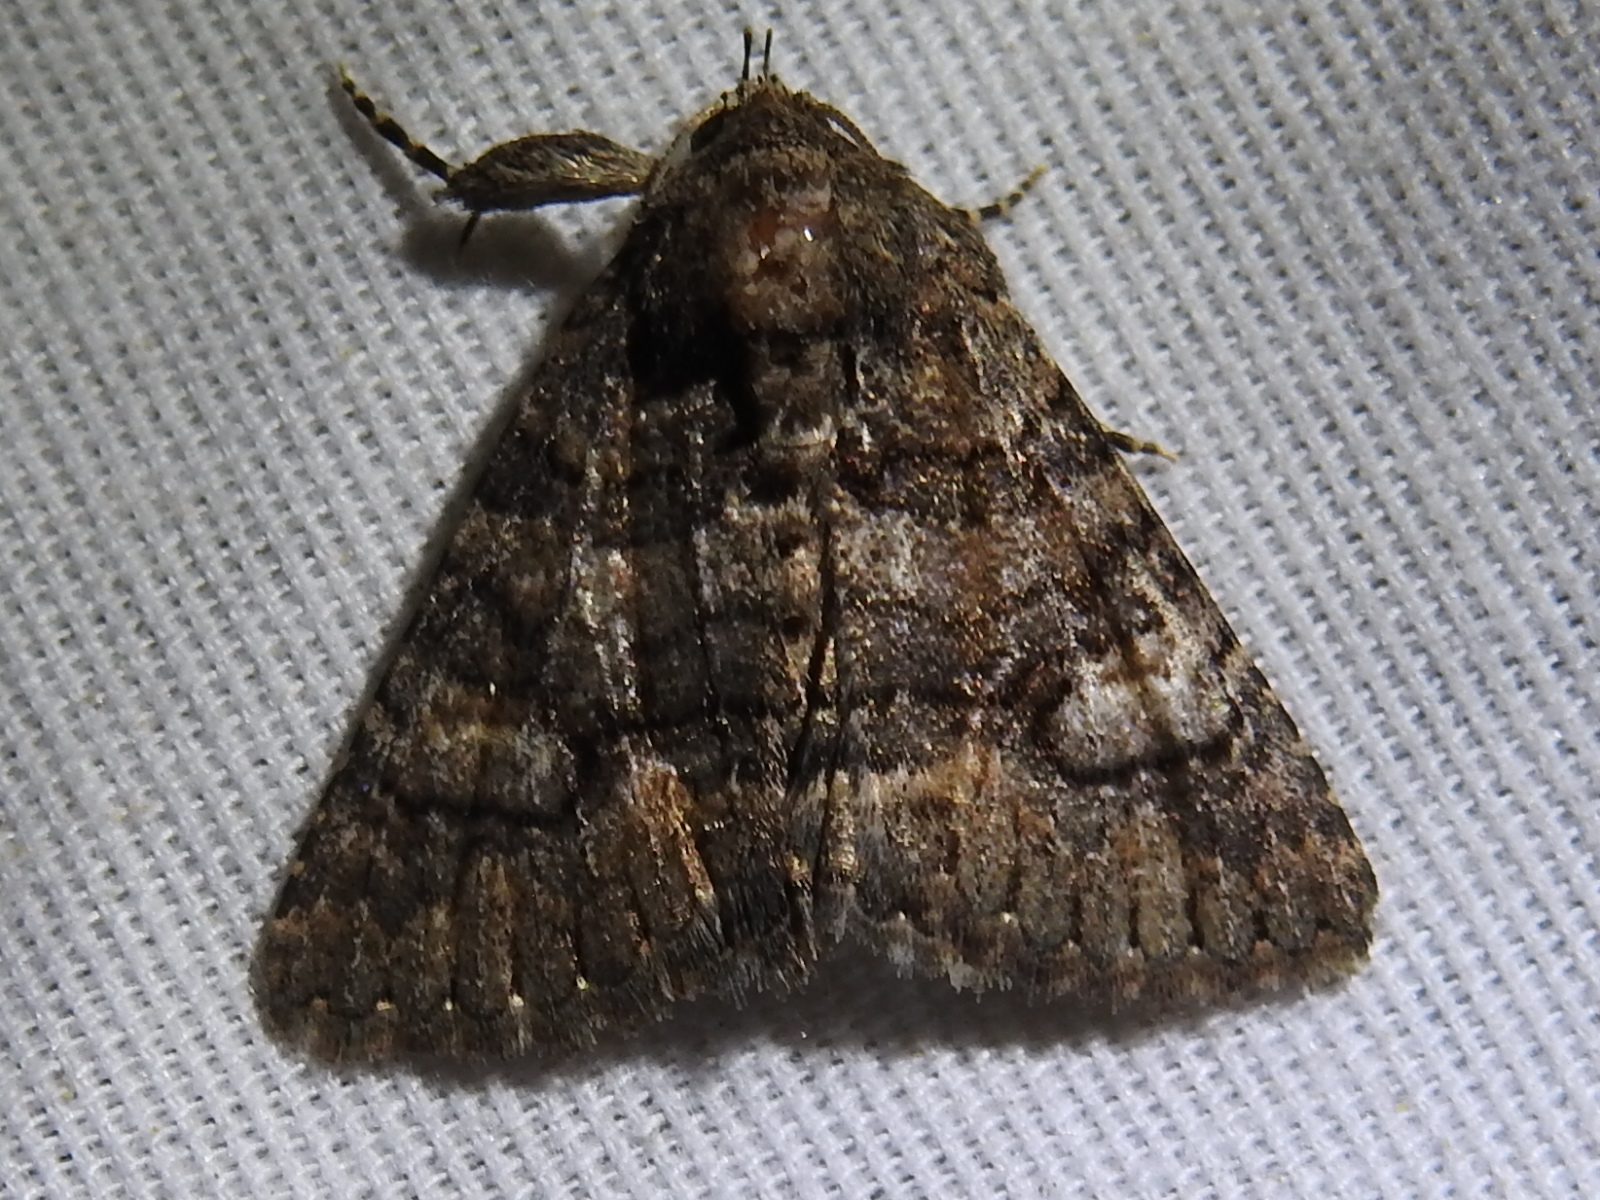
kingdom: Animalia
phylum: Arthropoda
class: Insecta
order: Lepidoptera
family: Erebidae
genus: Elousa
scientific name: Elousa mima
